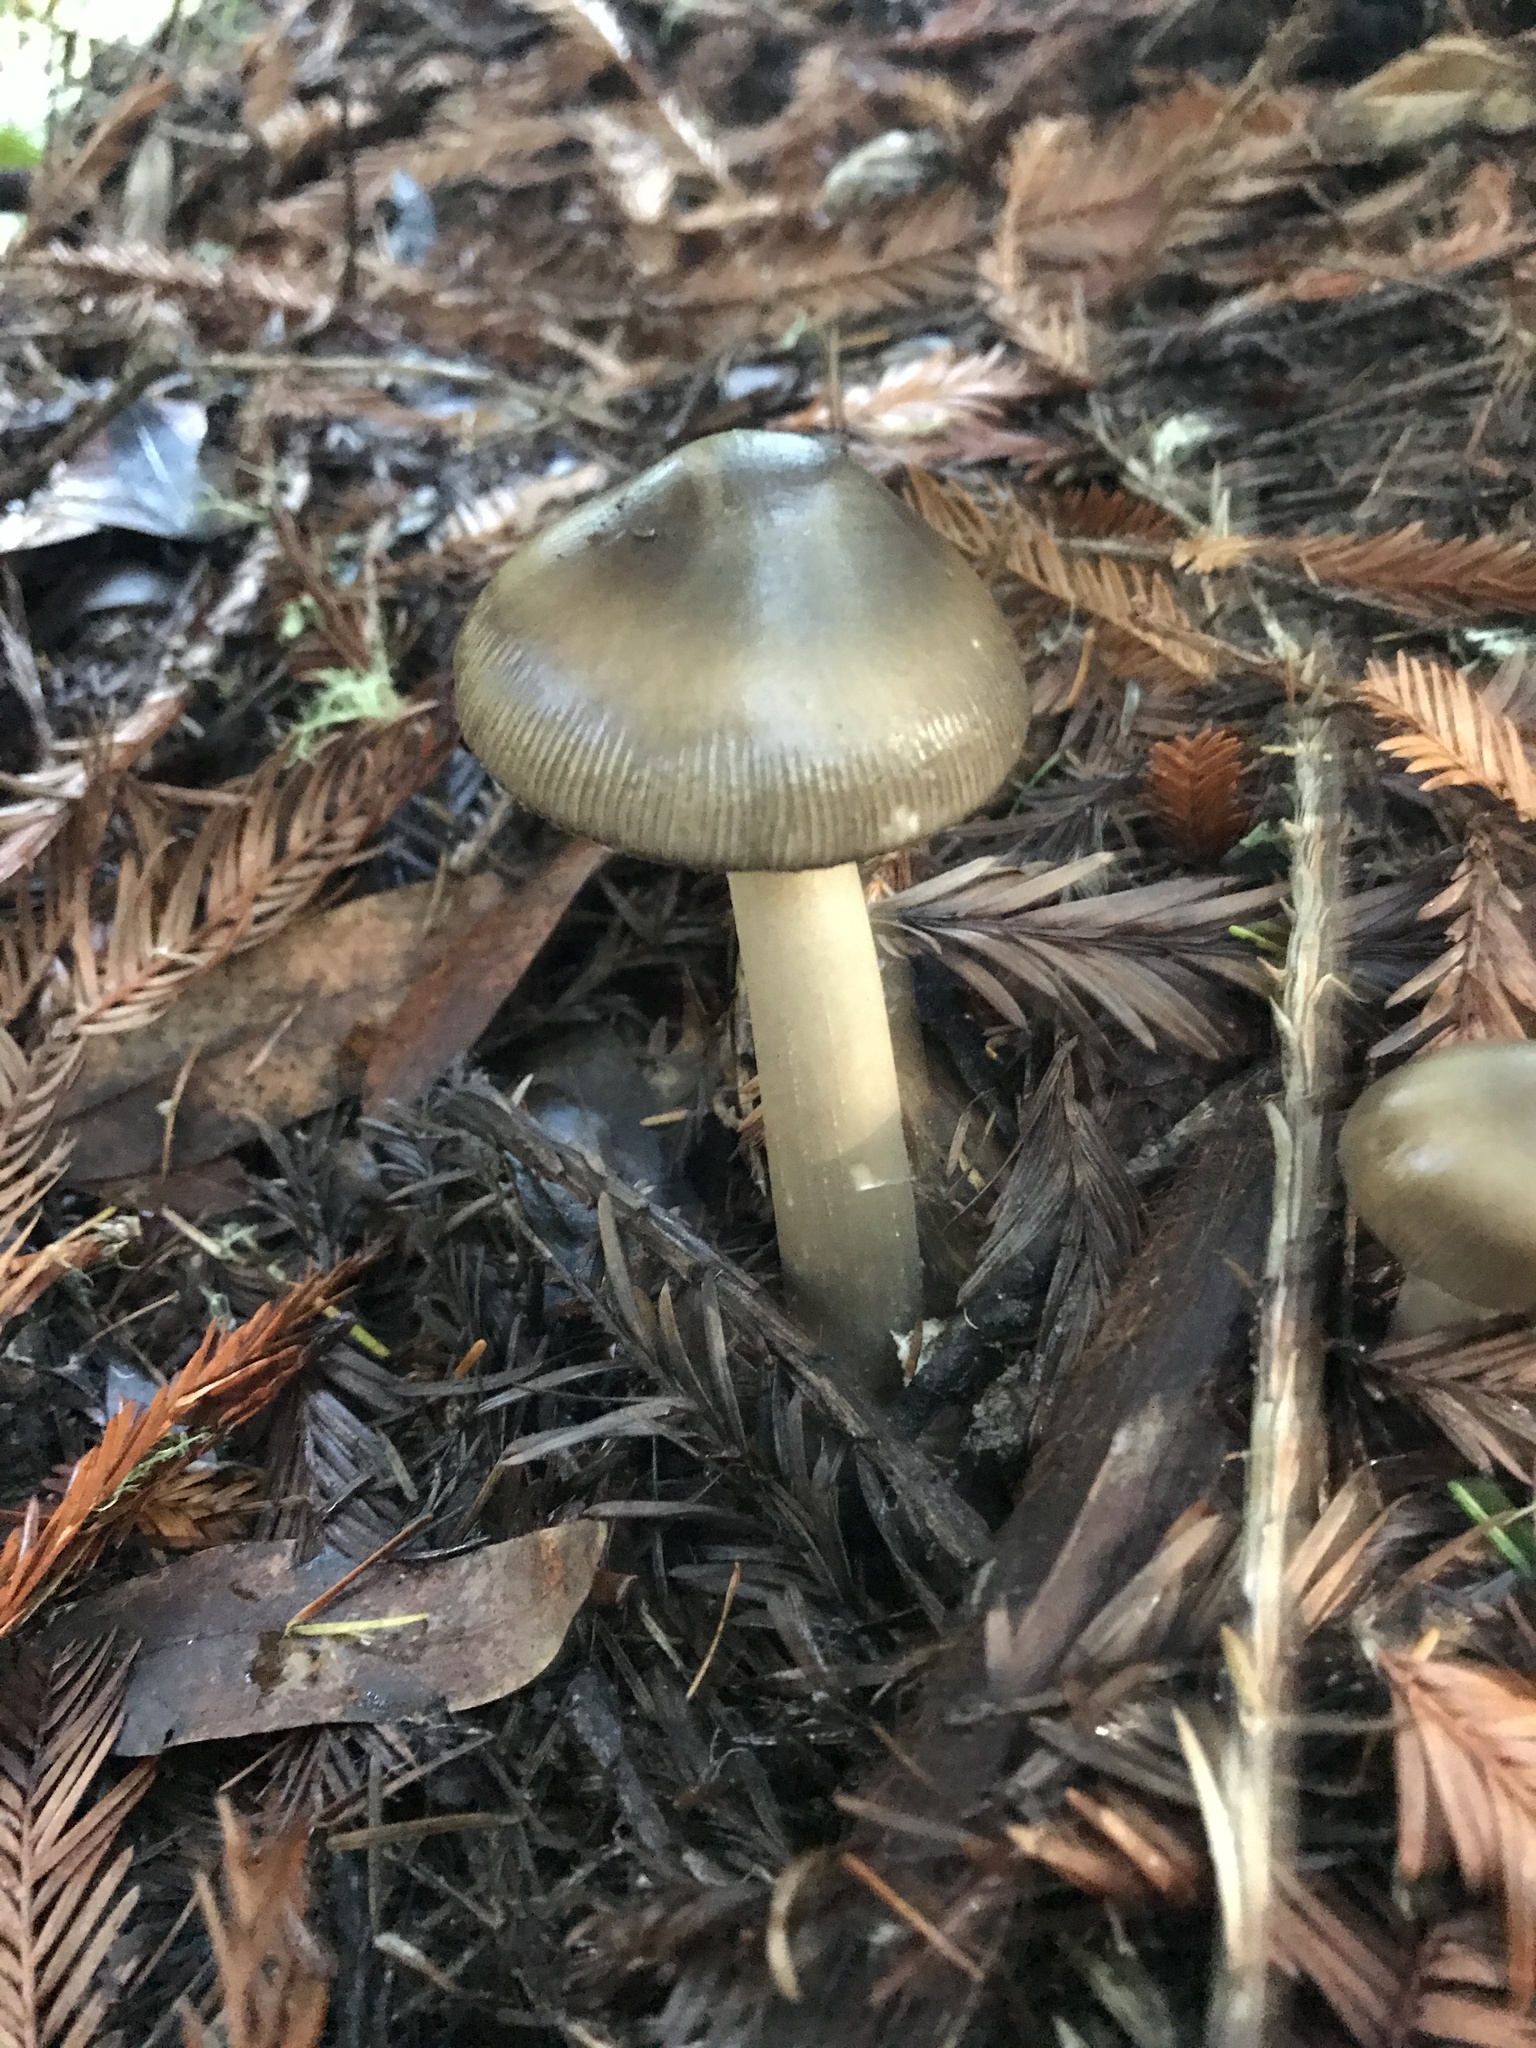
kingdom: Fungi
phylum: Basidiomycota
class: Agaricomycetes
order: Agaricales
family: Amanitaceae
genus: Amanita
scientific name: Amanita pachycolea
